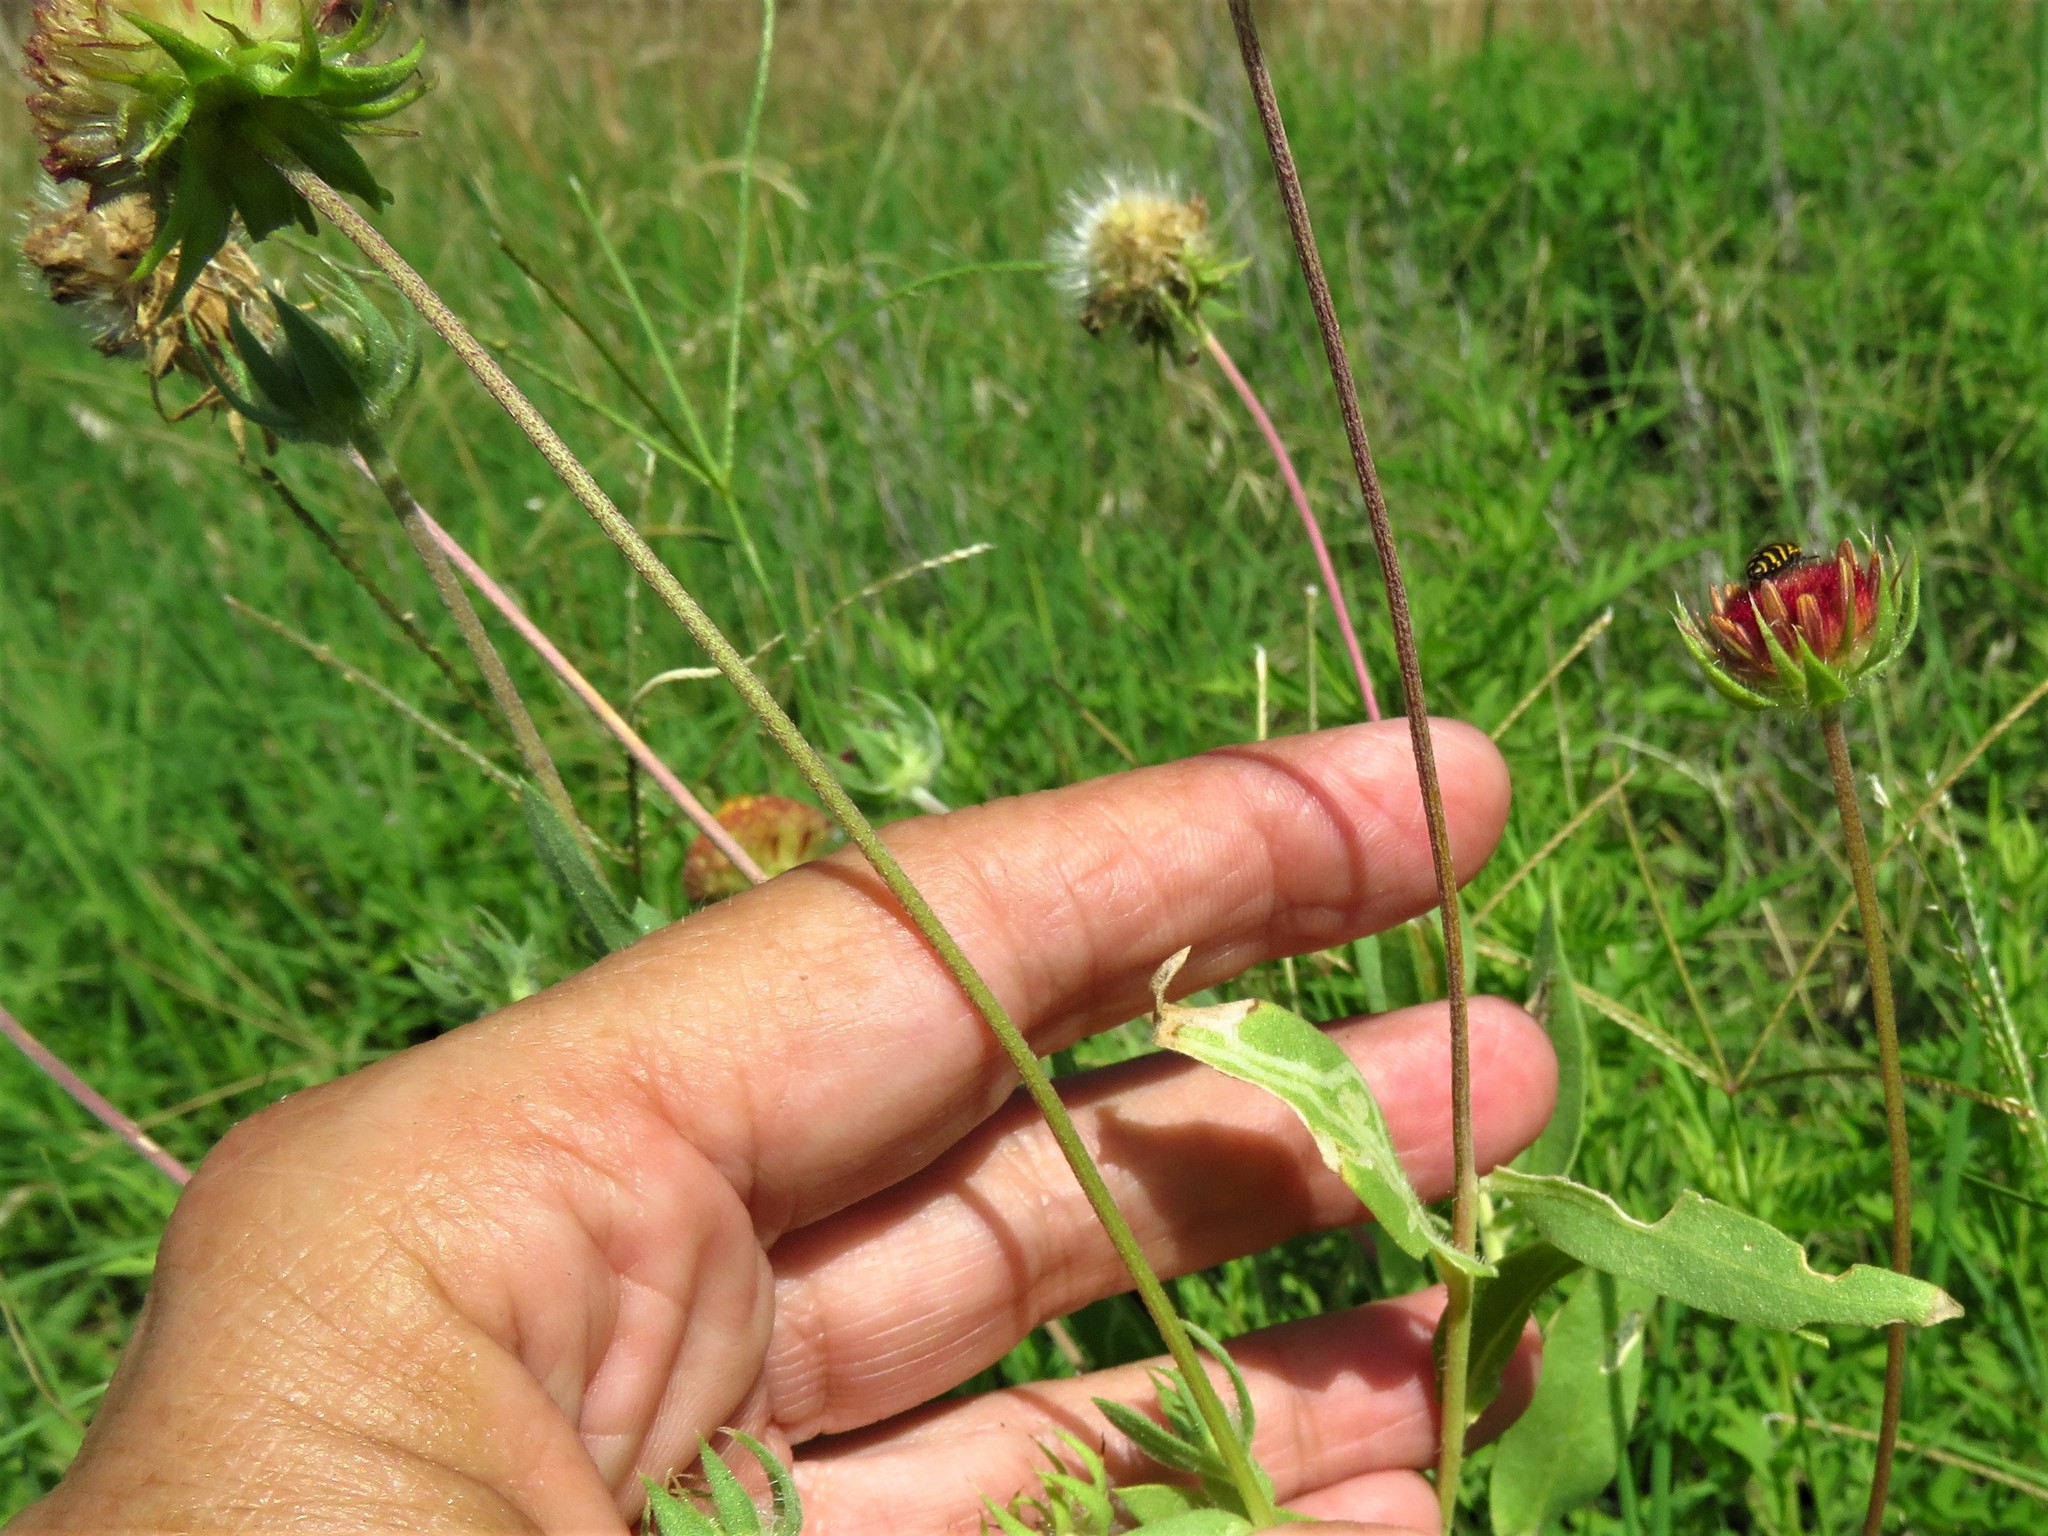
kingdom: Plantae
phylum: Tracheophyta
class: Magnoliopsida
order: Asterales
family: Asteraceae
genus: Gaillardia
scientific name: Gaillardia pulchella
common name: Firewheel
